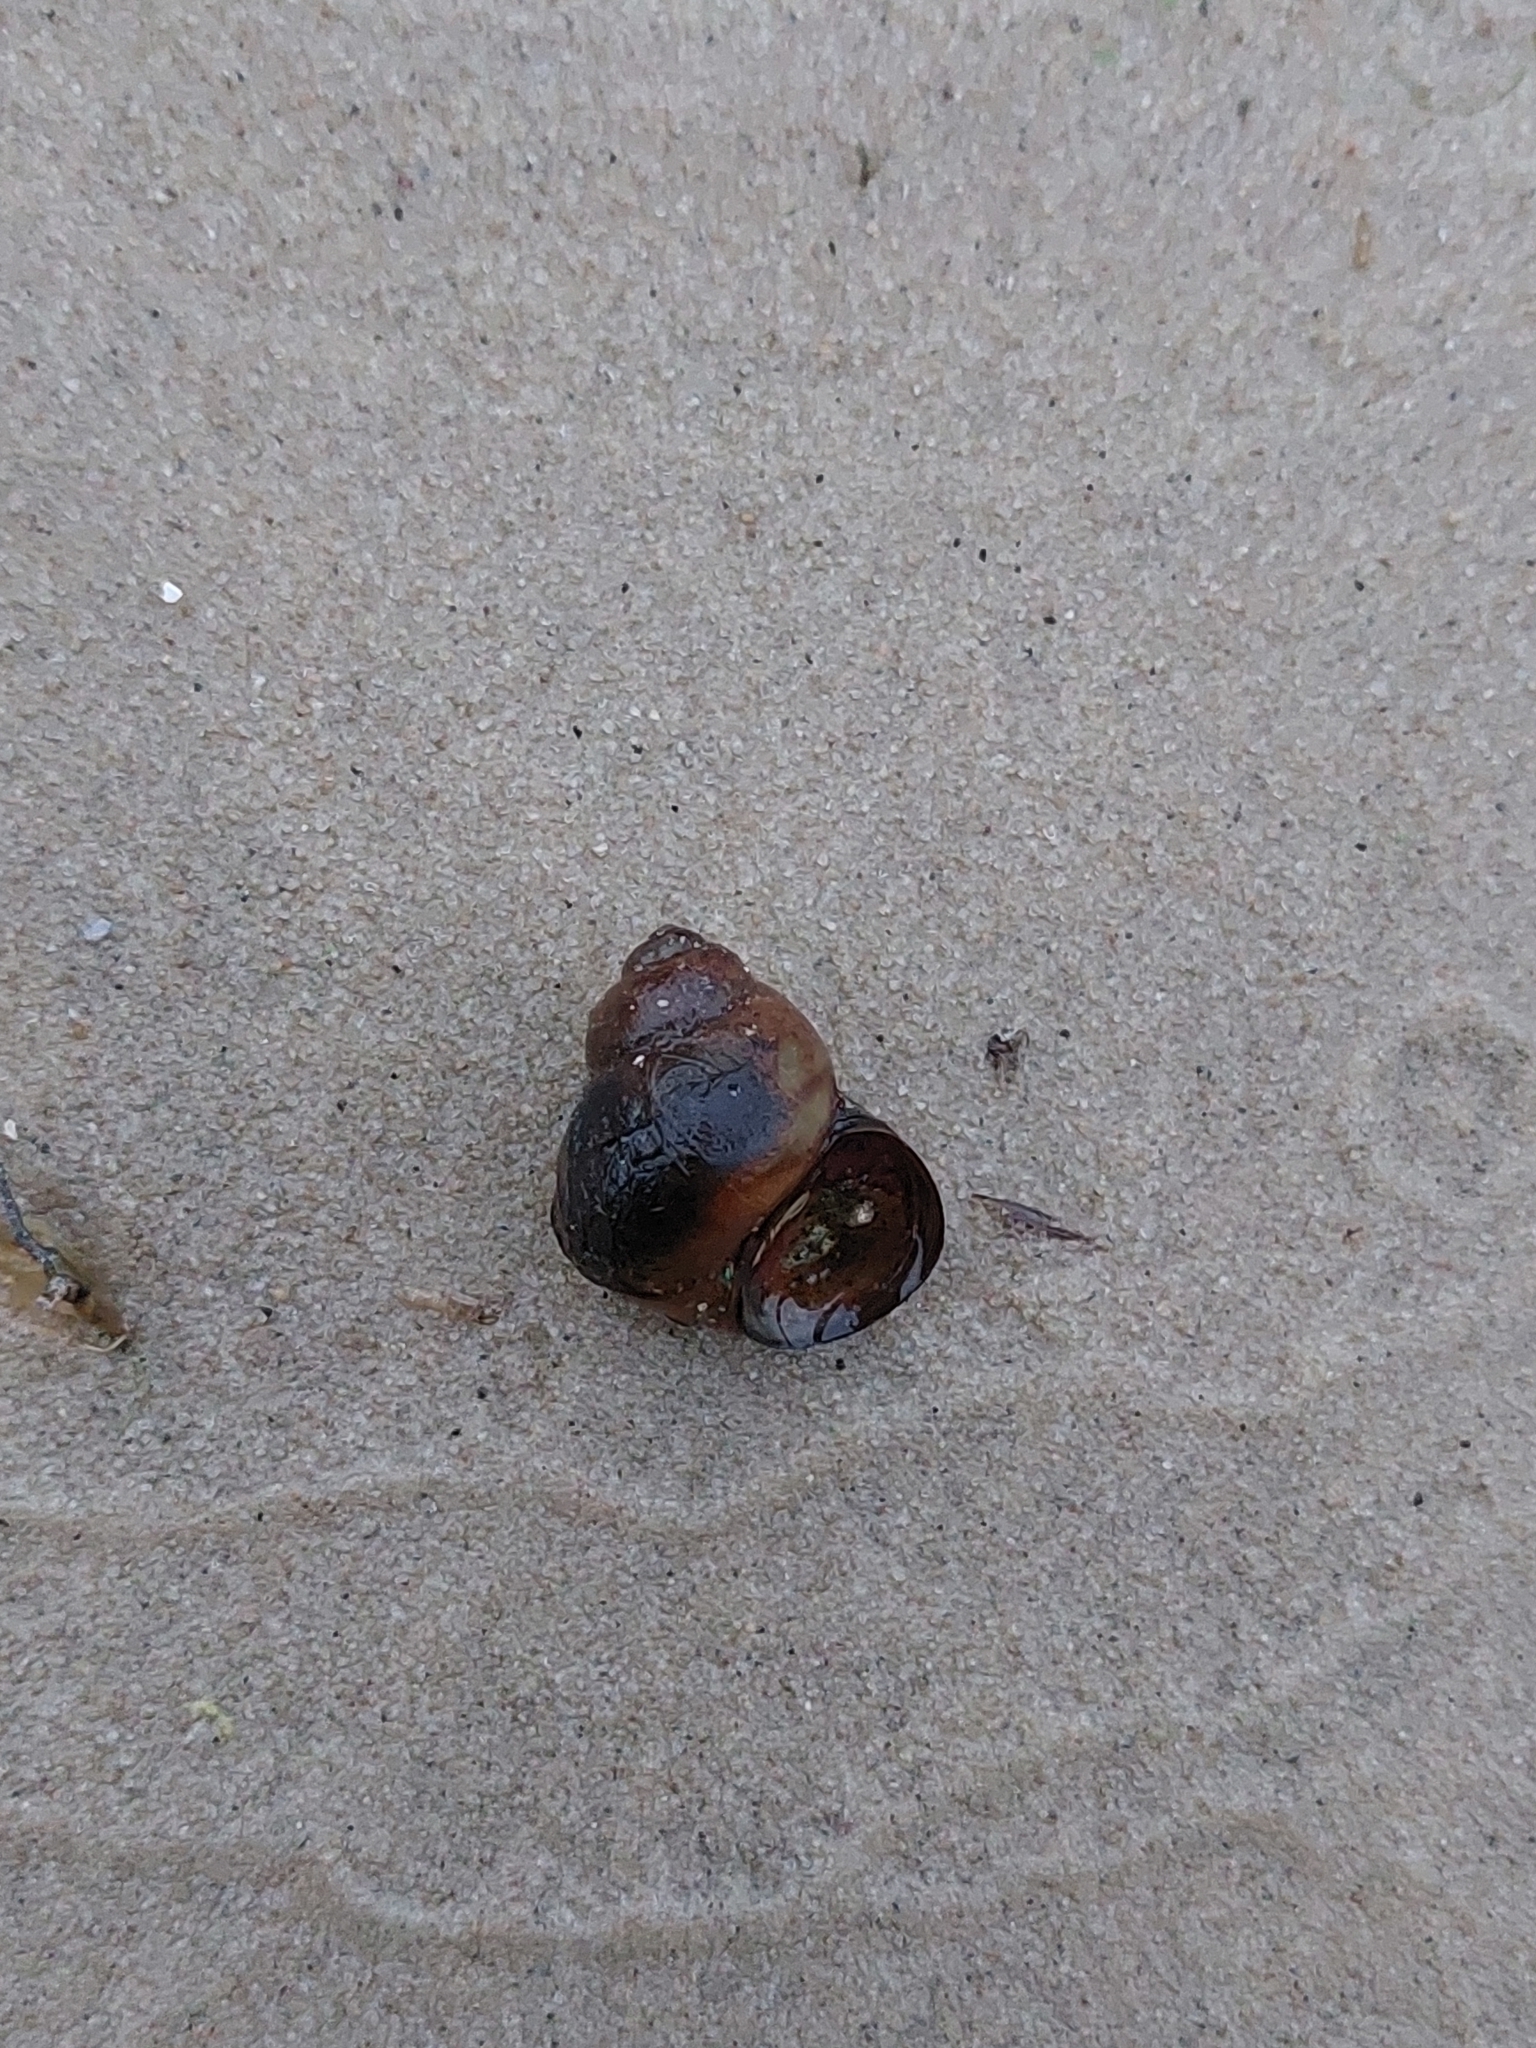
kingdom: Animalia
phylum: Mollusca
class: Gastropoda
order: Architaenioglossa
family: Viviparidae
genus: Viviparus
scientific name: Viviparus viviparus
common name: River snail
